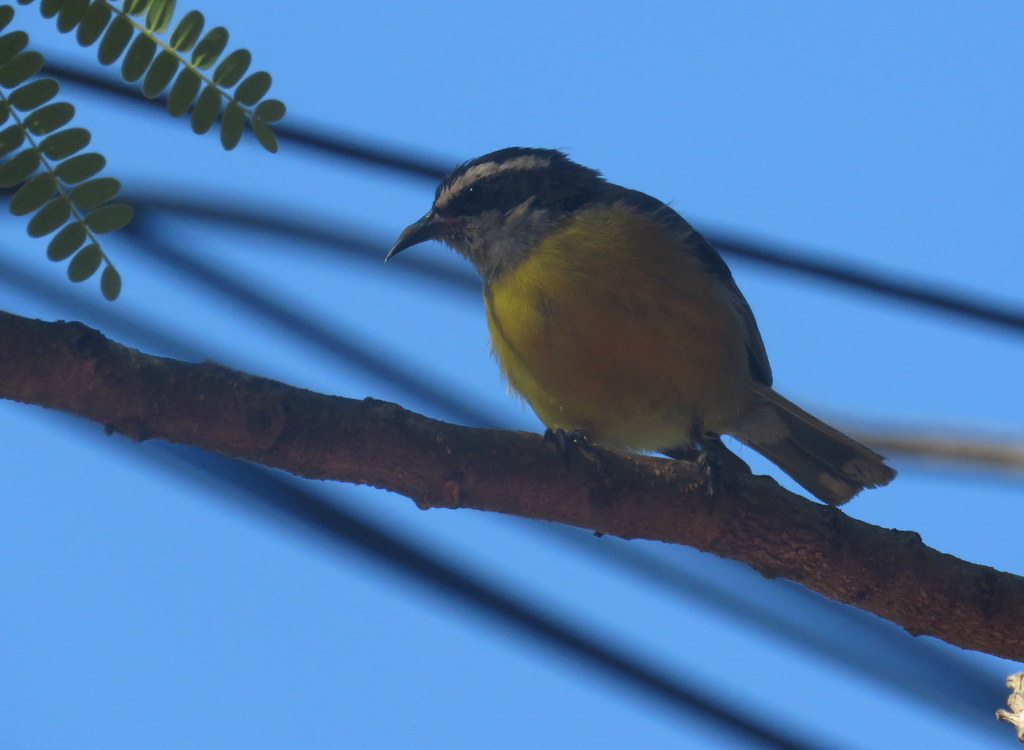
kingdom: Animalia
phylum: Chordata
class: Aves
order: Passeriformes
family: Thraupidae
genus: Coereba
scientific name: Coereba flaveola
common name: Bananaquit
